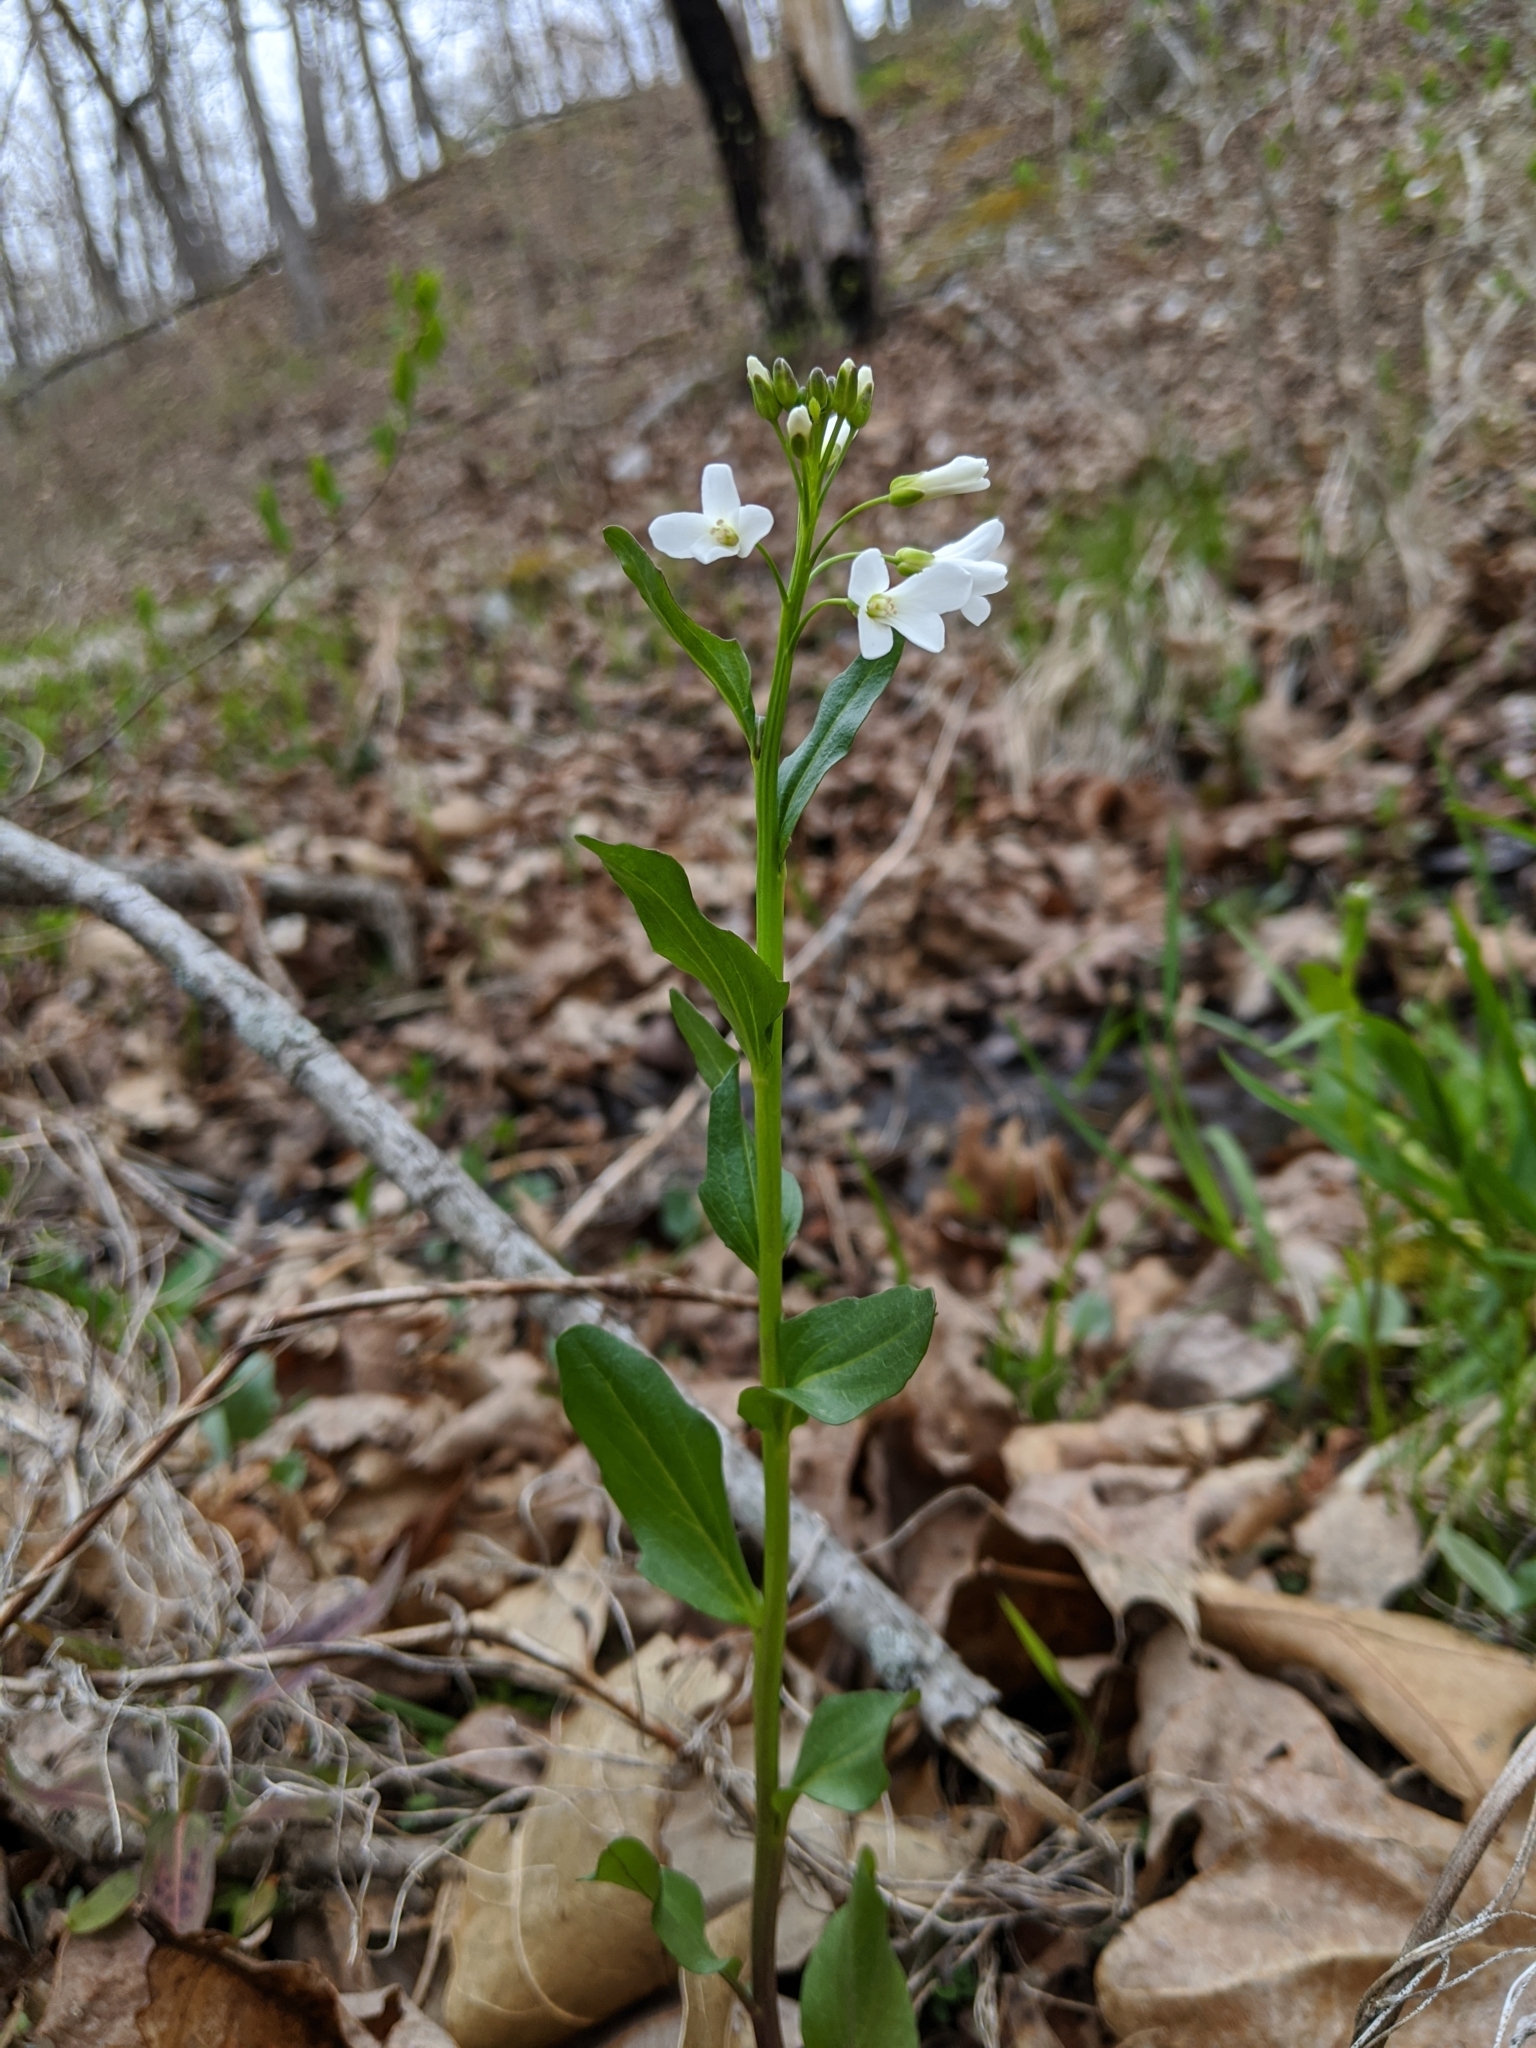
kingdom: Plantae
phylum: Tracheophyta
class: Magnoliopsida
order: Brassicales
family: Brassicaceae
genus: Cardamine
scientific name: Cardamine bulbosa
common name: Spring cress
